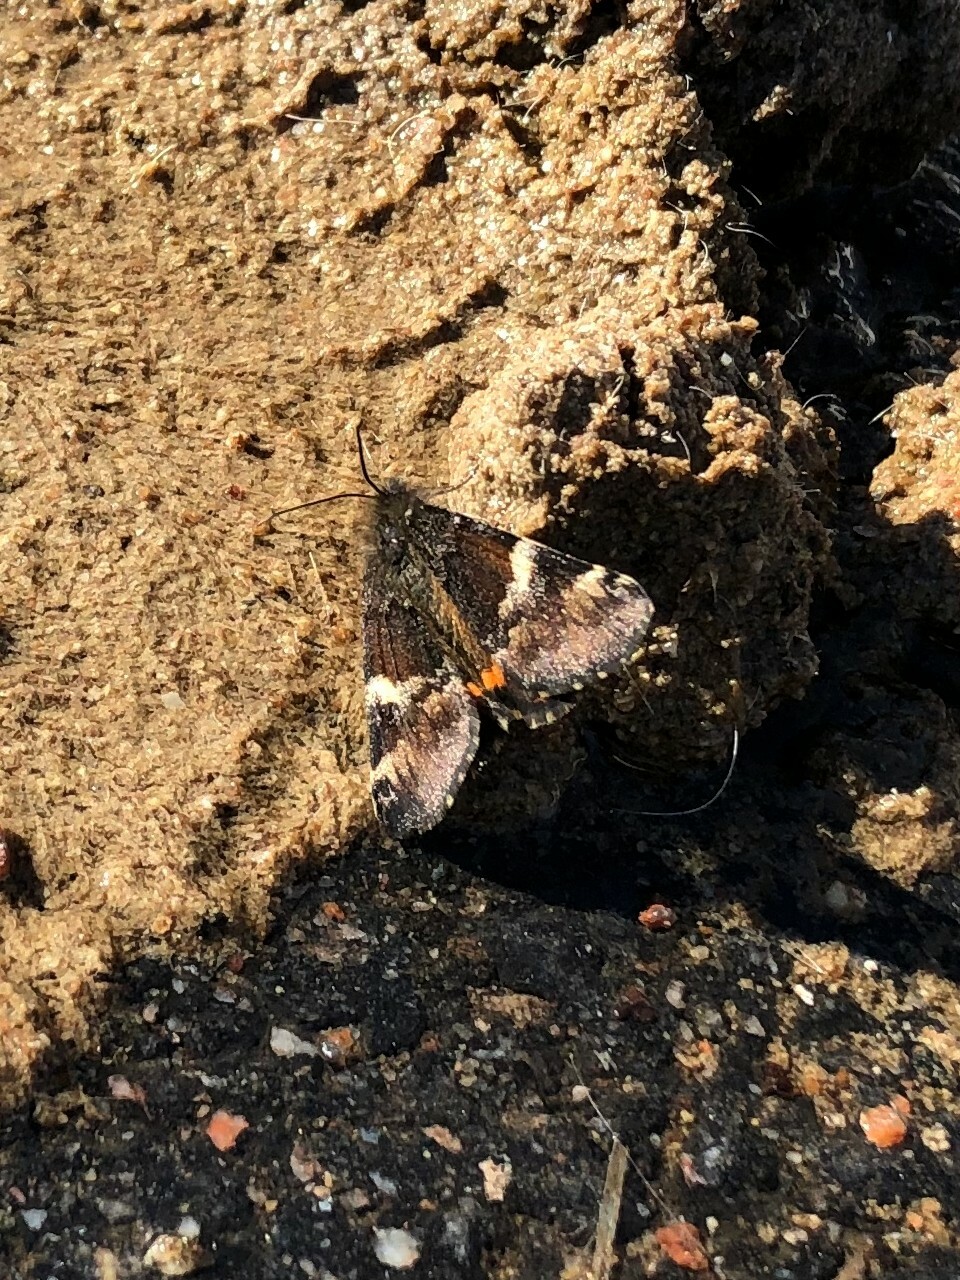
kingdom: Animalia
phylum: Arthropoda
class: Insecta
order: Lepidoptera
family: Geometridae
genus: Archiearis
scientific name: Archiearis parthenias
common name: Orange underwing
